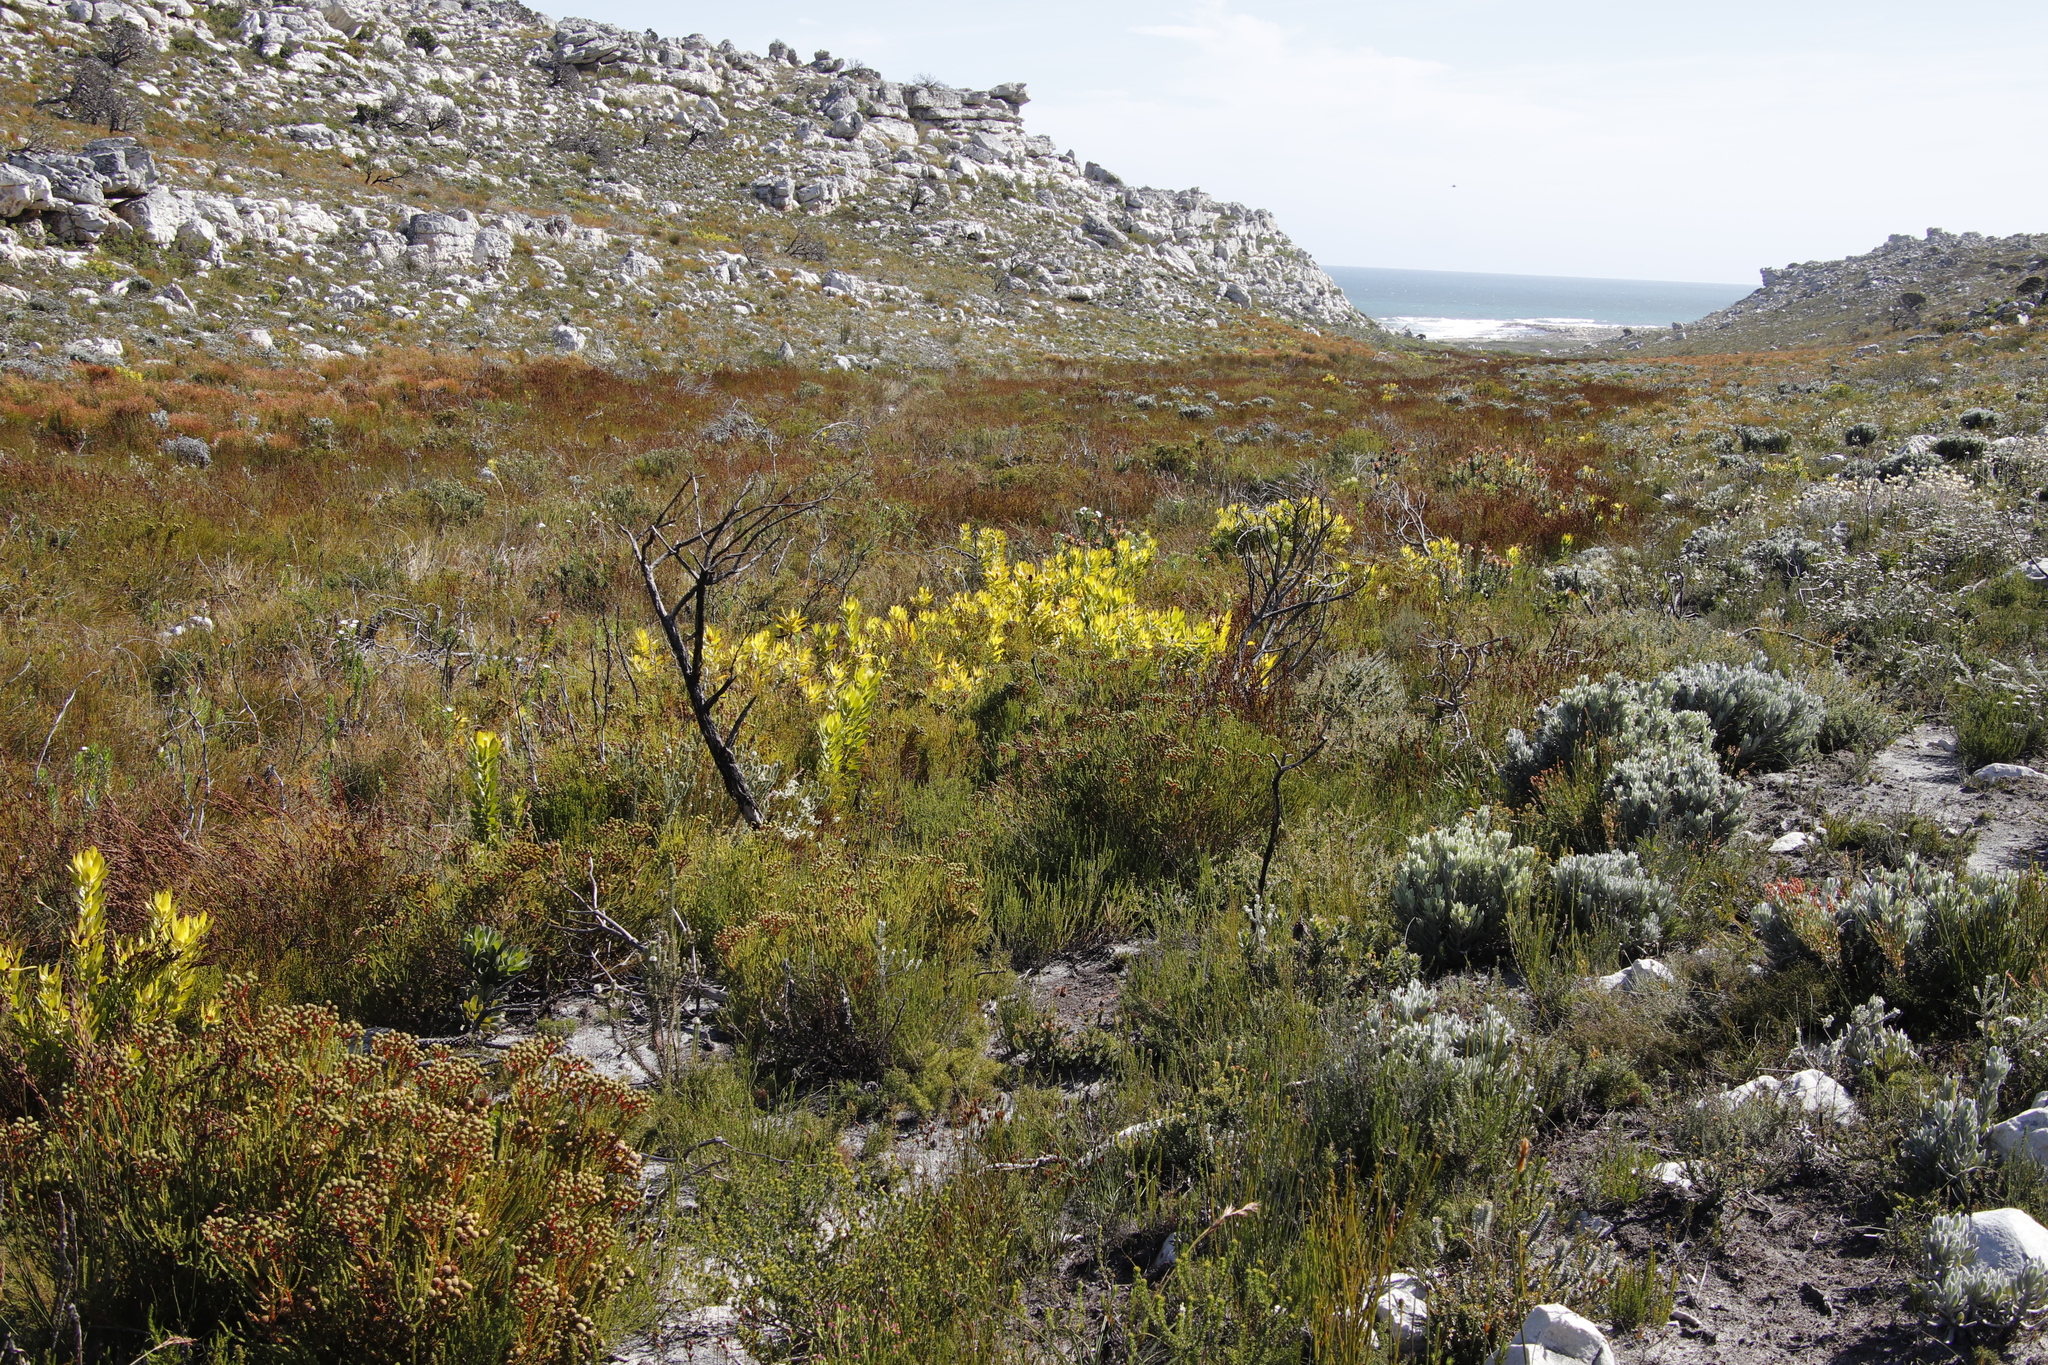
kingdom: Plantae
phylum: Tracheophyta
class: Magnoliopsida
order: Proteales
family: Proteaceae
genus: Leucadendron
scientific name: Leucadendron laureolum
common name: Golden sunshinebush
